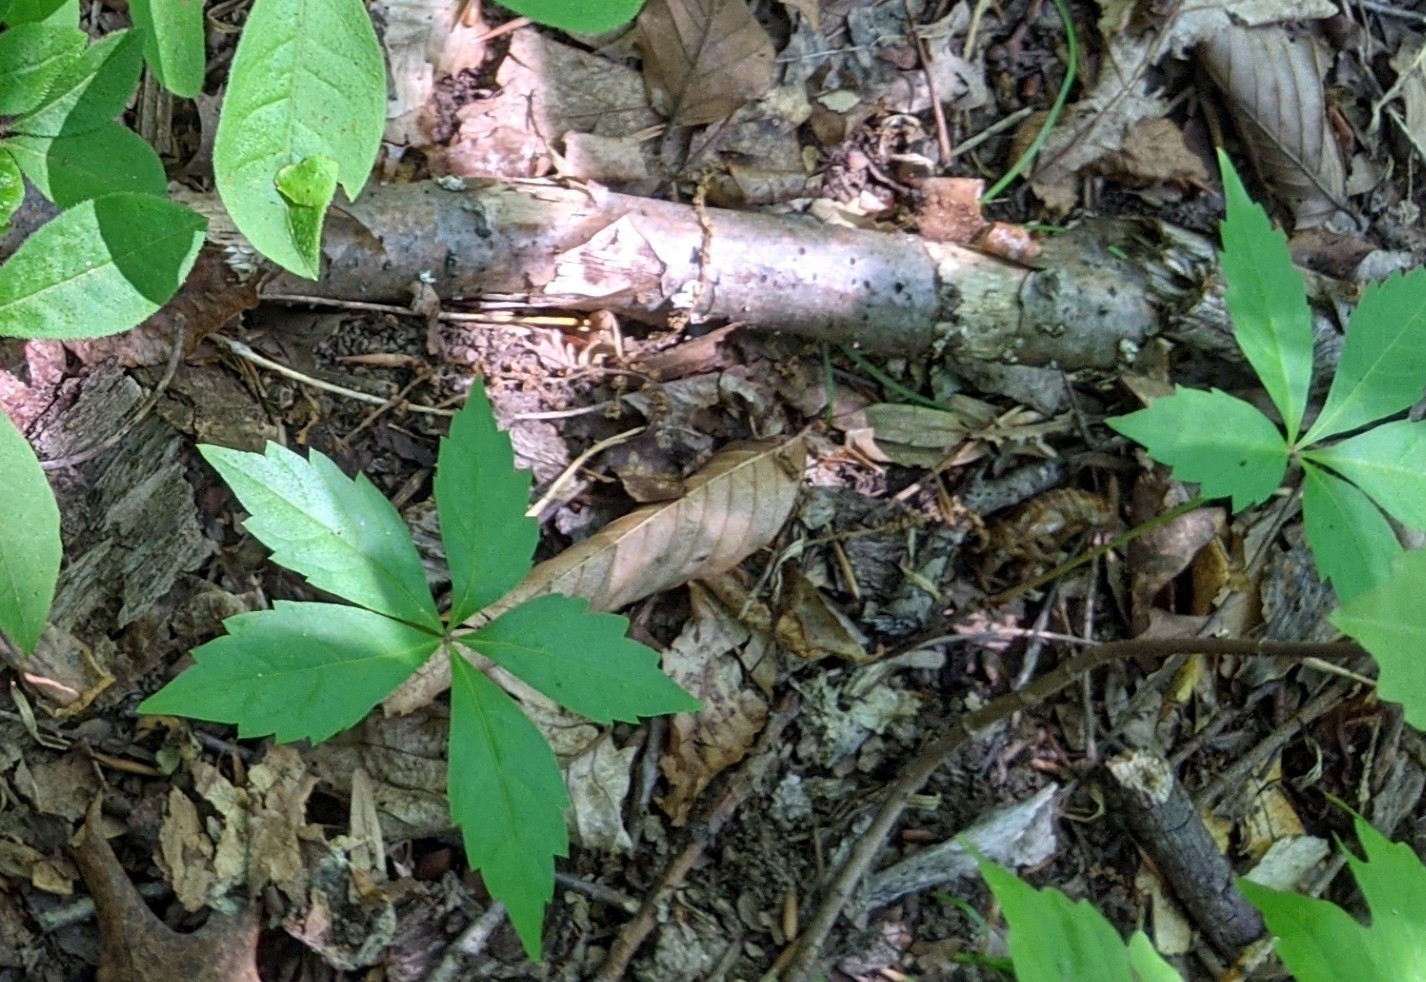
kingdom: Plantae
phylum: Tracheophyta
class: Magnoliopsida
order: Vitales
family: Vitaceae
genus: Parthenocissus
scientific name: Parthenocissus quinquefolia
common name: Virginia-creeper
